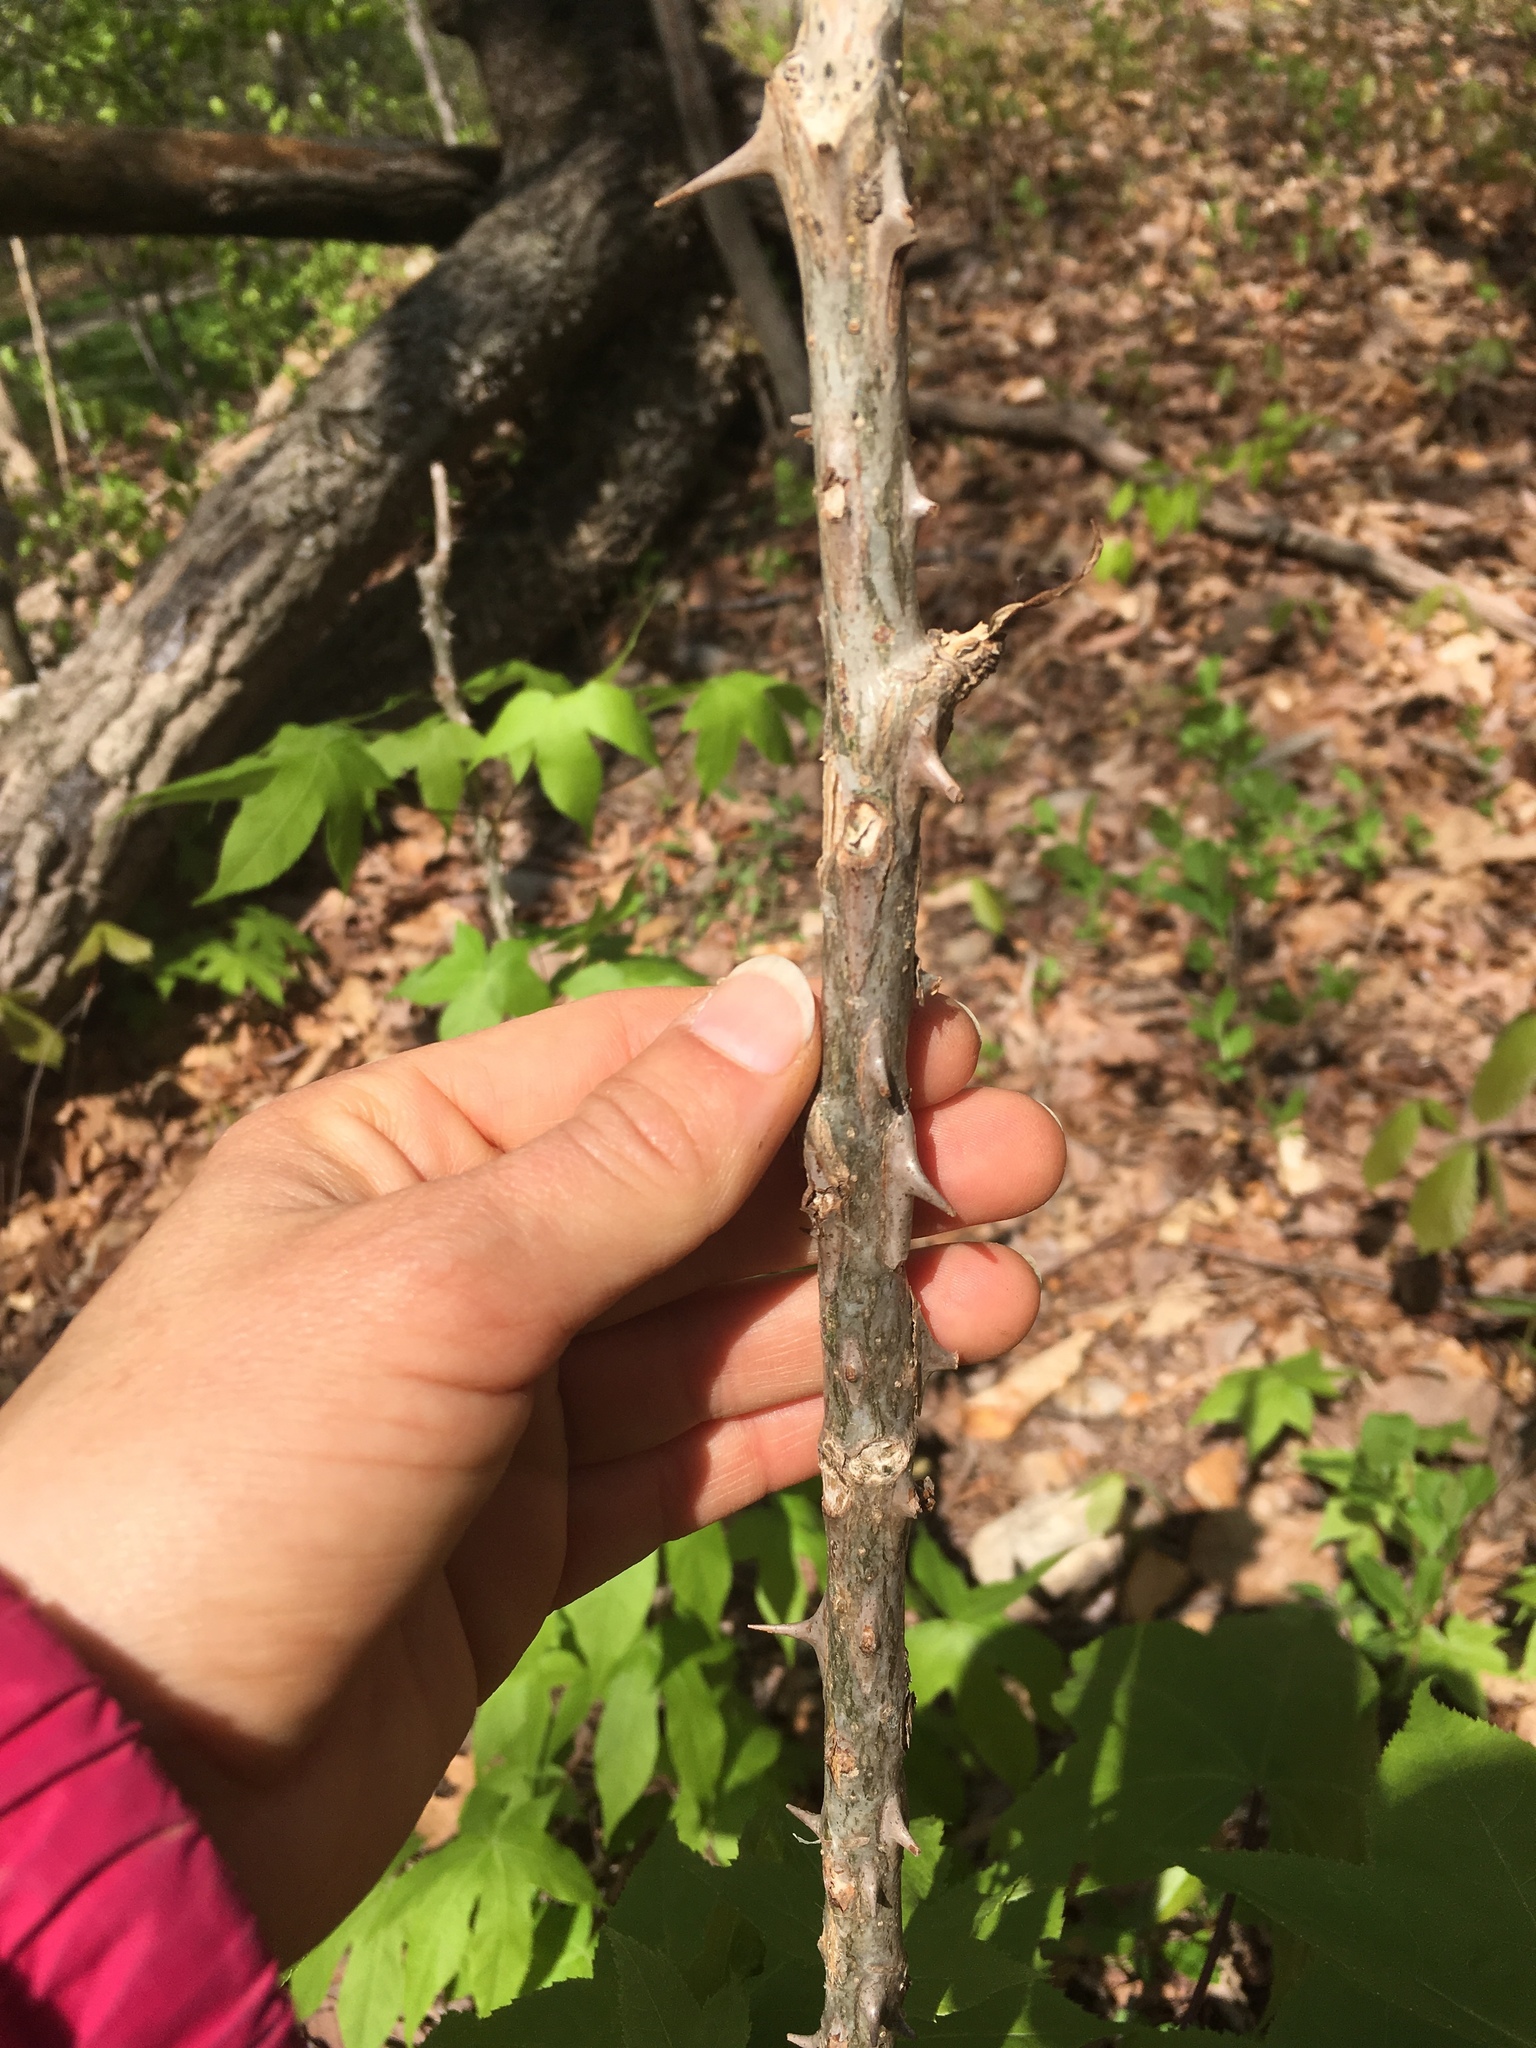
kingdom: Plantae
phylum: Tracheophyta
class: Magnoliopsida
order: Apiales
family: Araliaceae
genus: Kalopanax
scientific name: Kalopanax septemlobus
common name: Castor aralia
